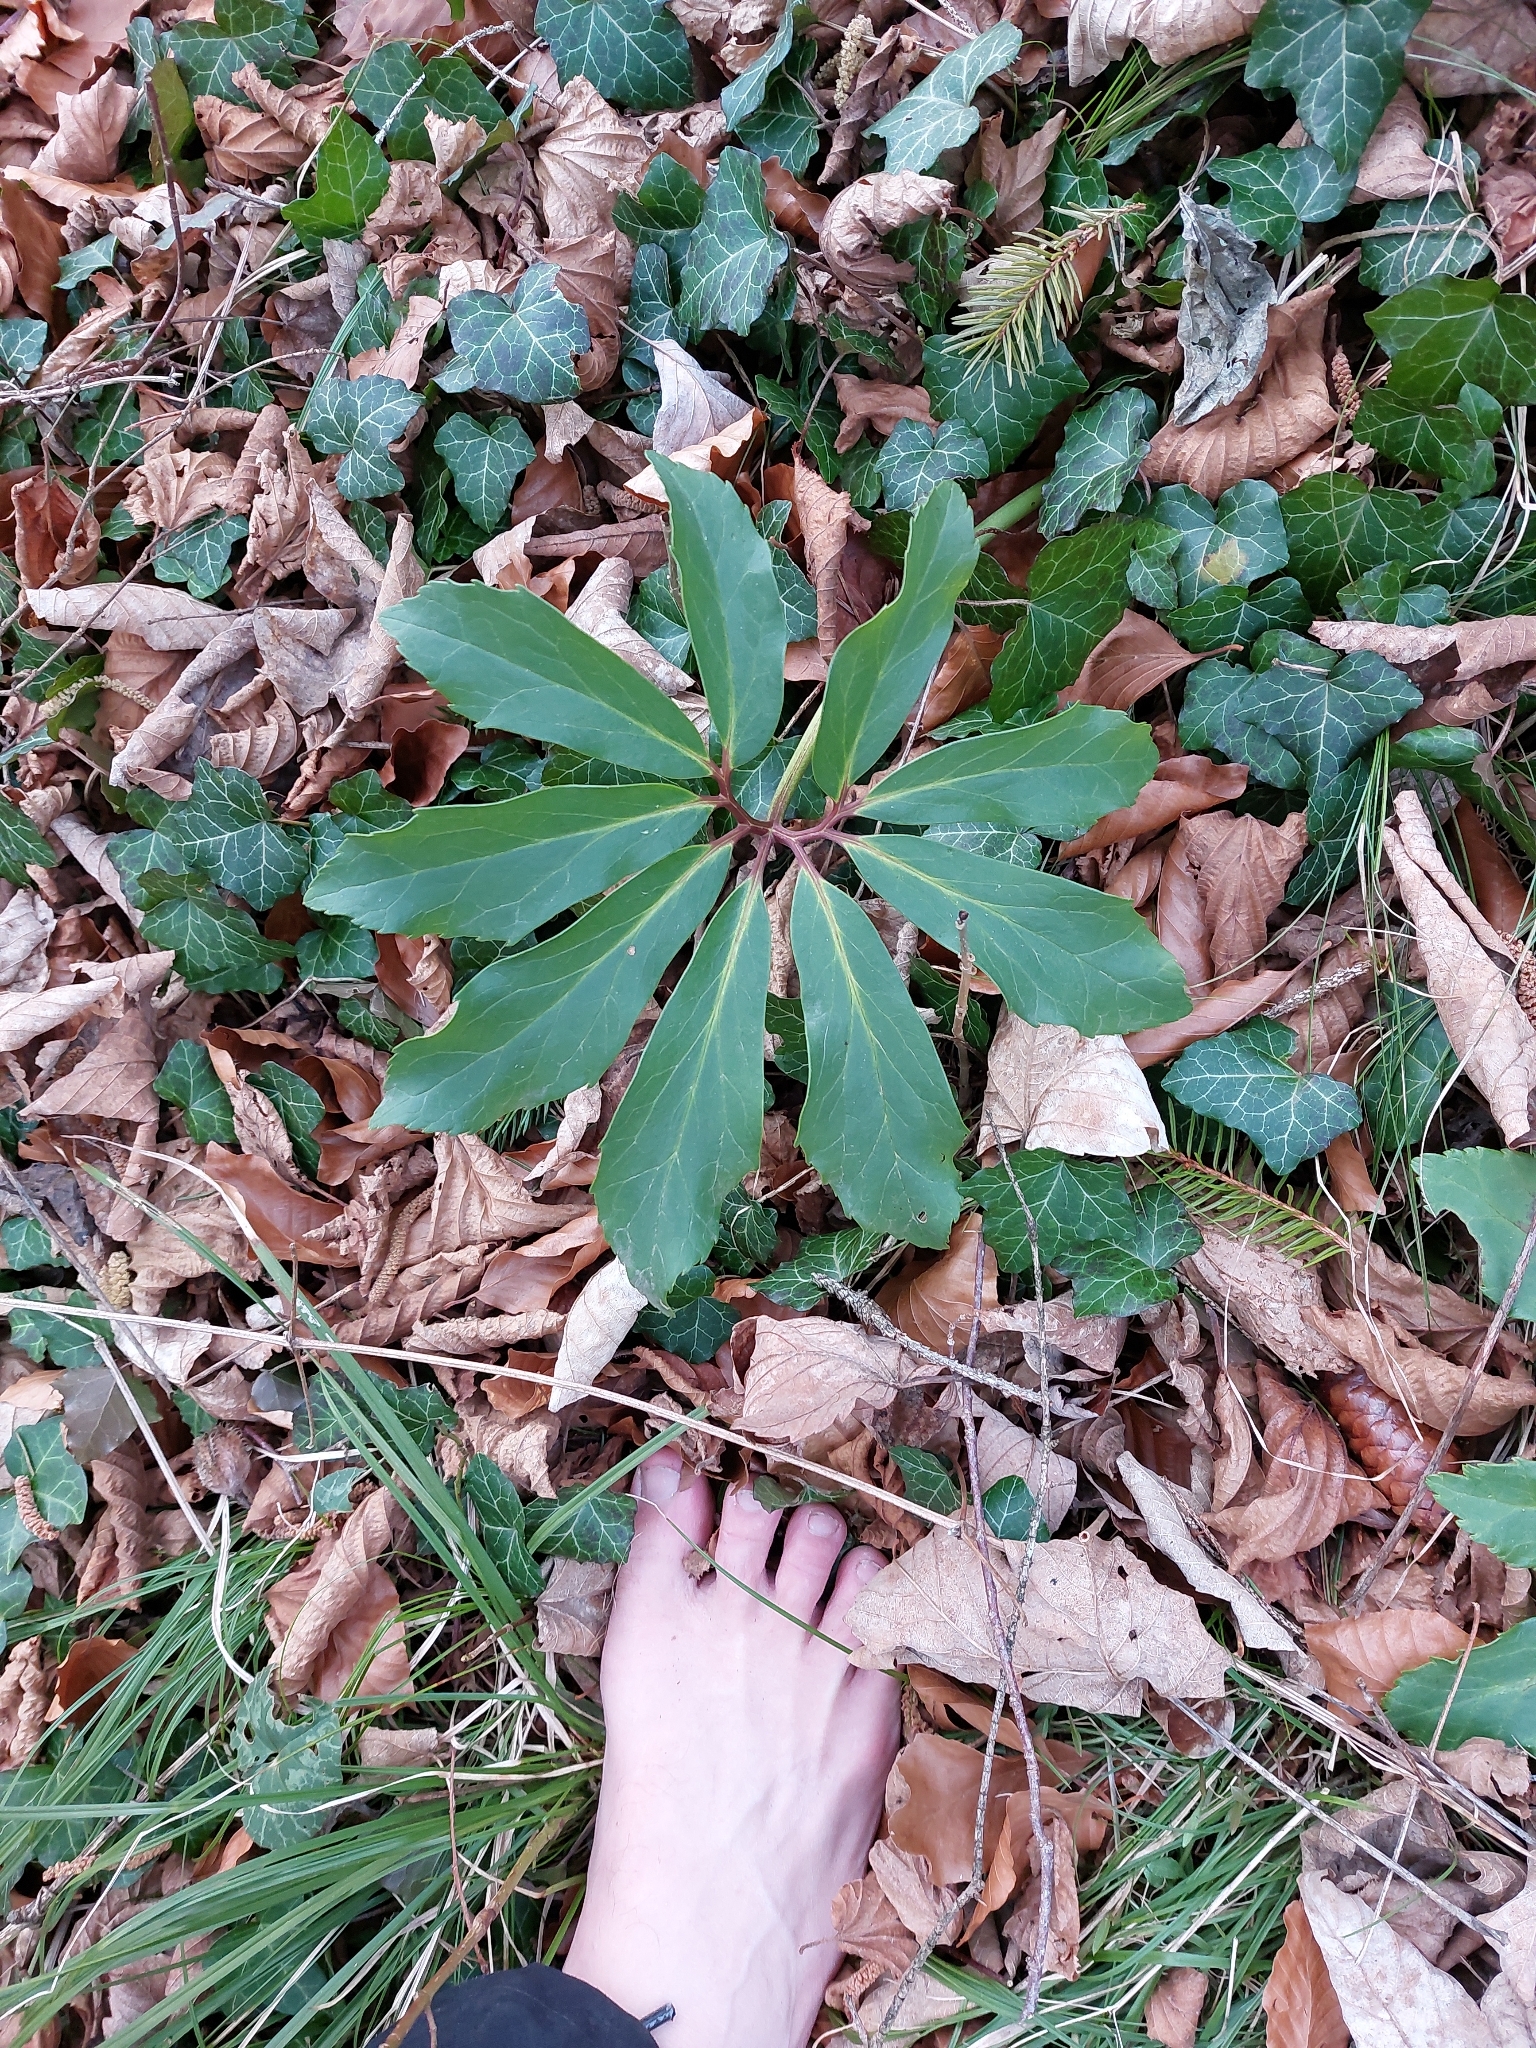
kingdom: Plantae
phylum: Tracheophyta
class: Magnoliopsida
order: Ranunculales
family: Ranunculaceae
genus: Helleborus
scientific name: Helleborus niger
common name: Black hellebore
